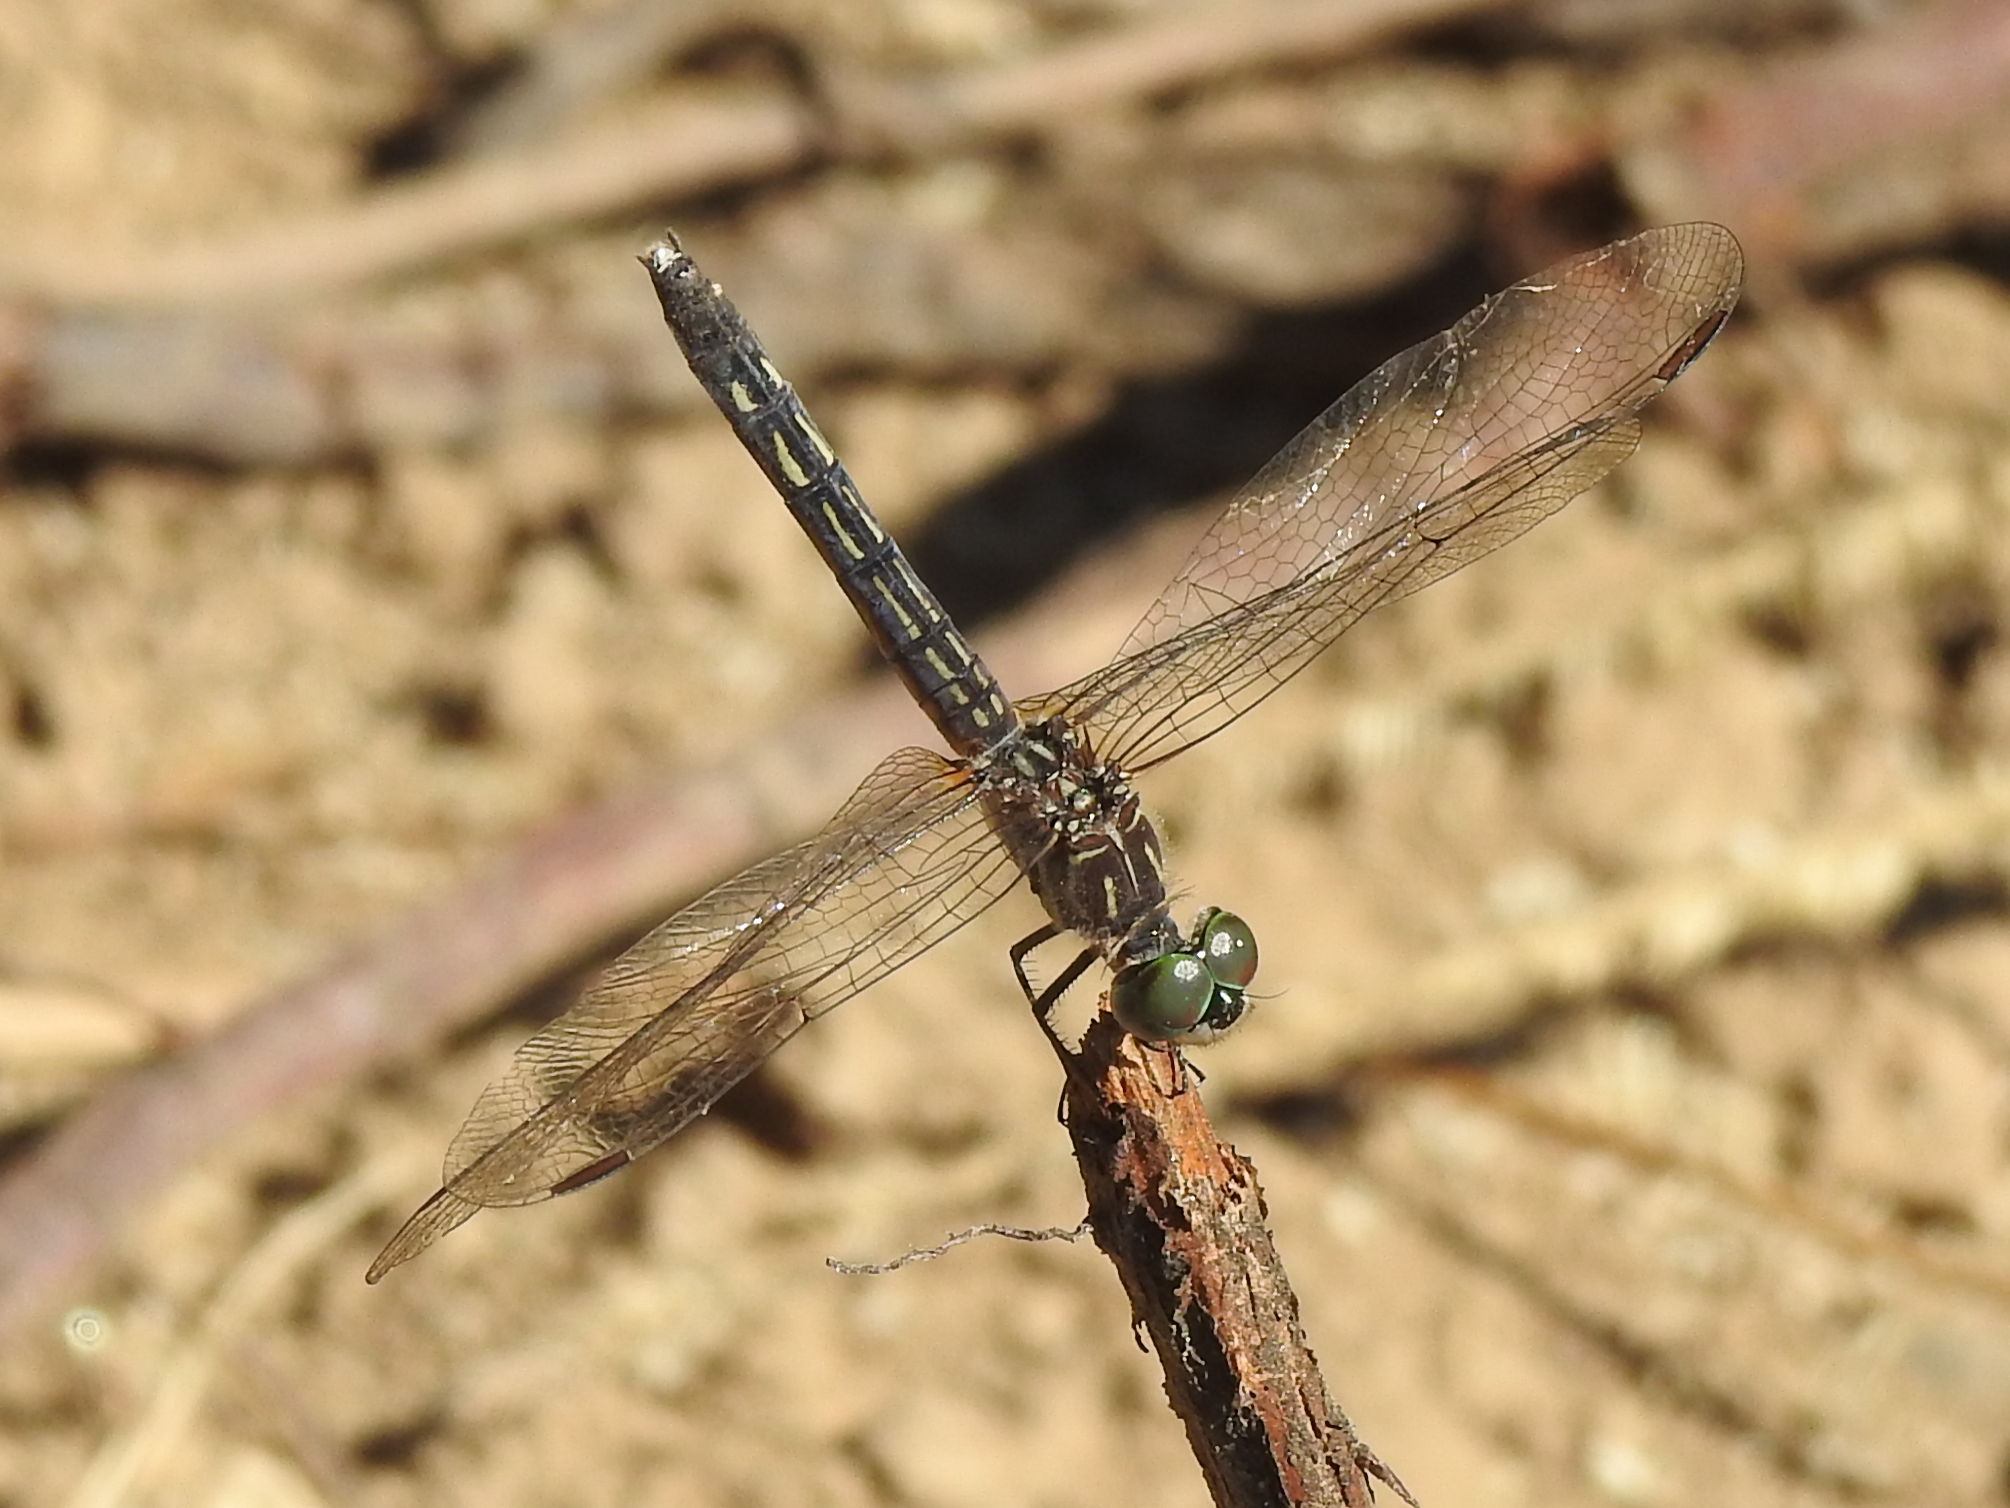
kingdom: Animalia
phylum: Arthropoda
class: Insecta
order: Odonata
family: Libellulidae
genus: Pachydiplax
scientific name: Pachydiplax longipennis
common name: Blue dasher
